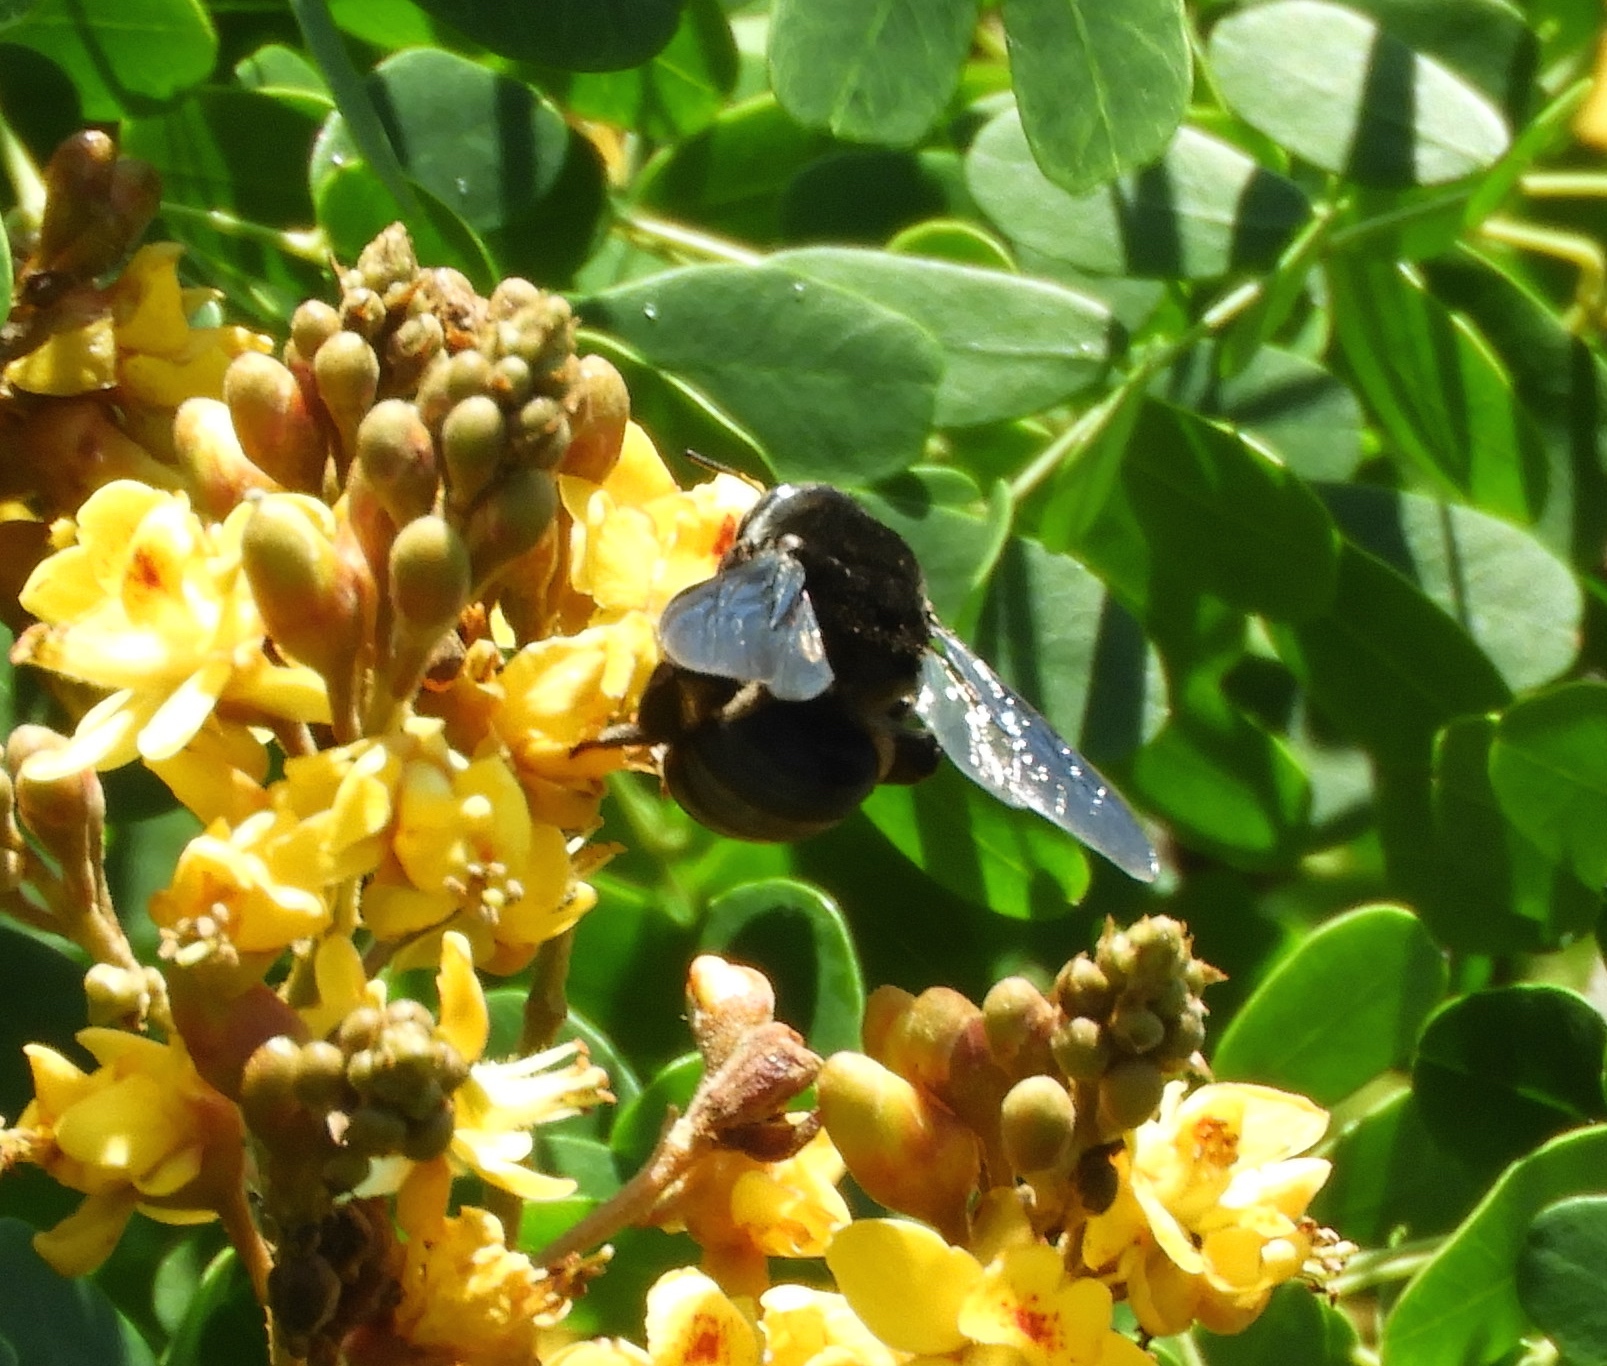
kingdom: Animalia
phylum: Arthropoda
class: Insecta
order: Hymenoptera
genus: Schonnherria
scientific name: Schonnherria
